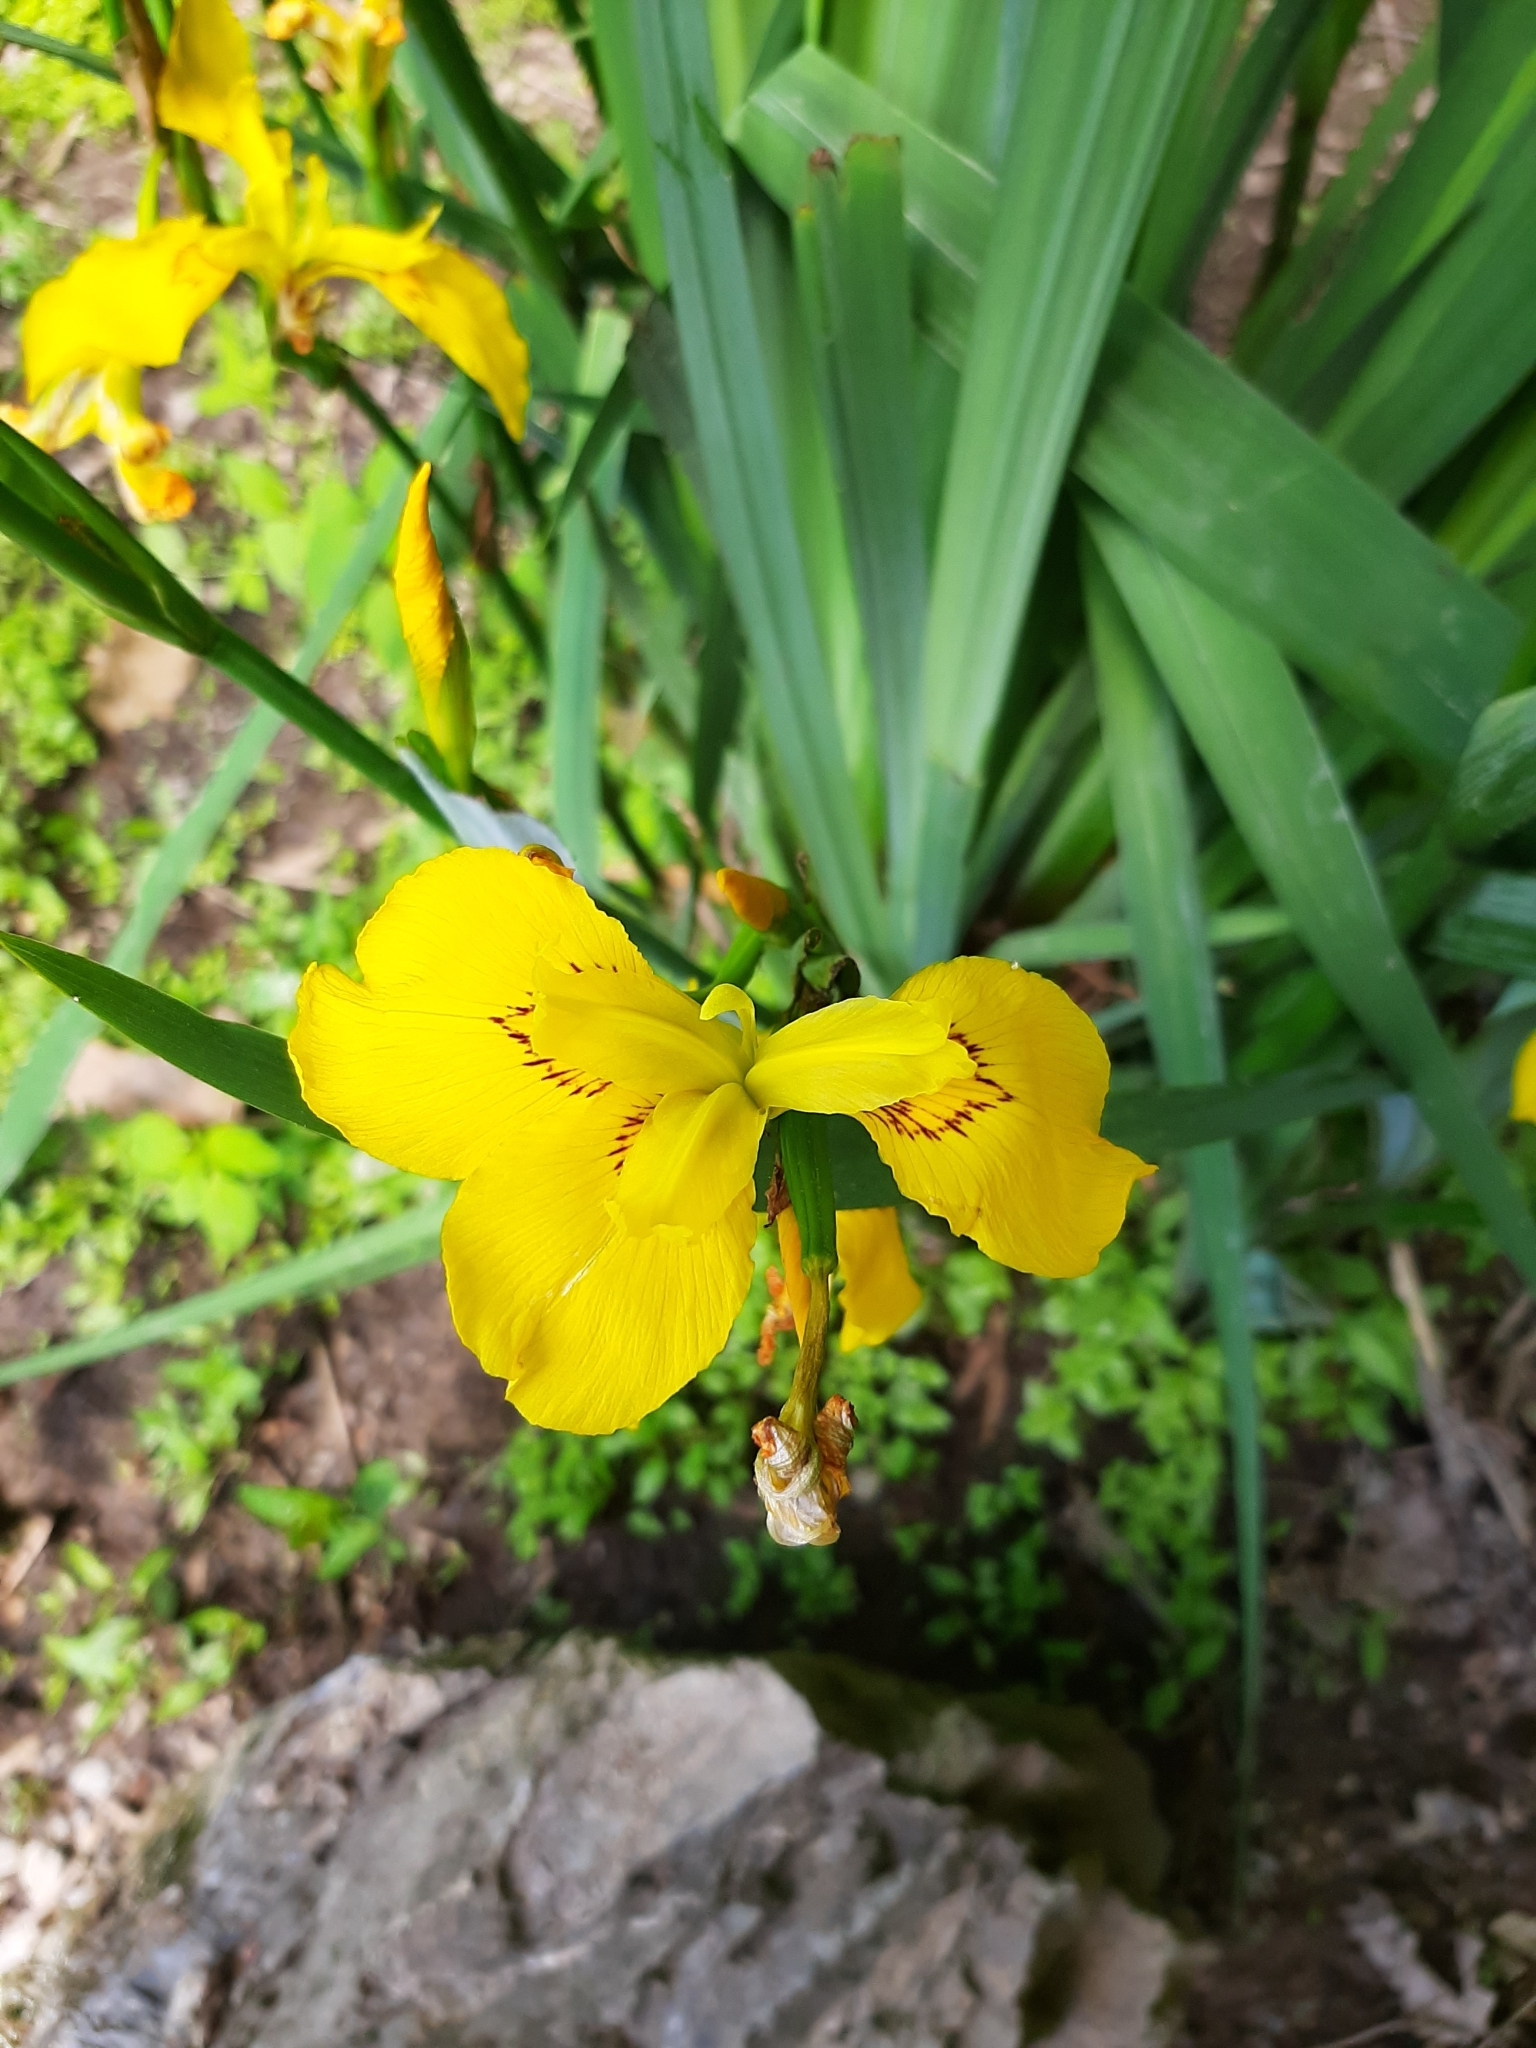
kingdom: Plantae
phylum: Tracheophyta
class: Liliopsida
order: Asparagales
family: Iridaceae
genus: Iris
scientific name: Iris pseudacorus
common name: Yellow flag
